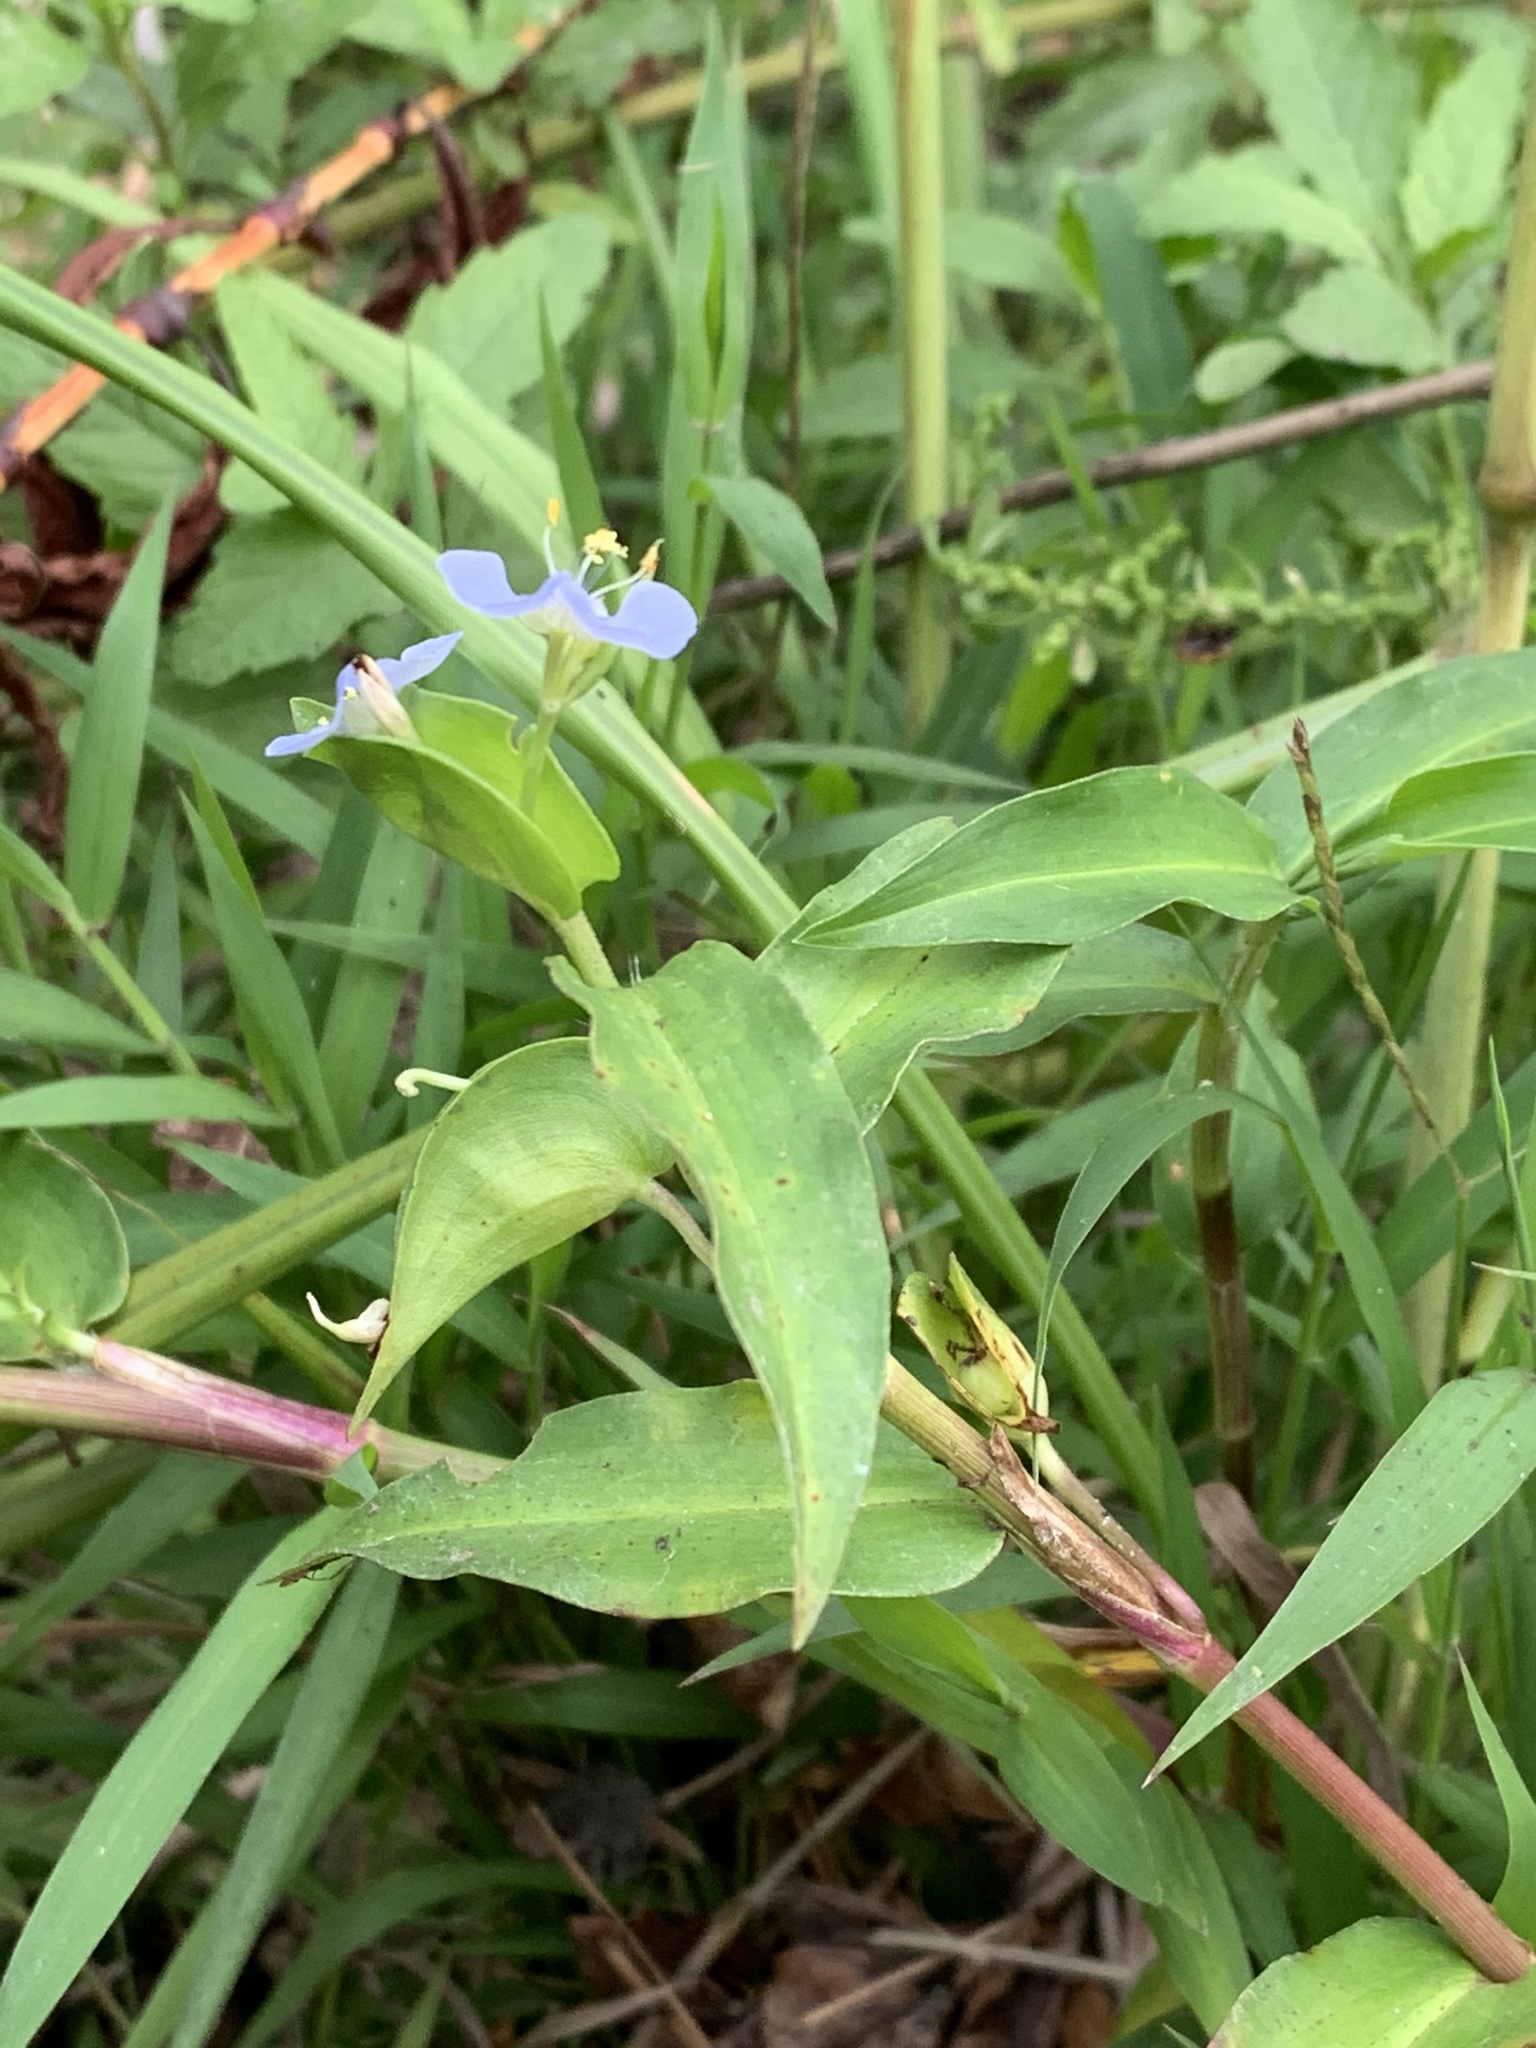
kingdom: Plantae
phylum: Tracheophyta
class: Liliopsida
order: Commelinales
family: Commelinaceae
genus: Commelina
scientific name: Commelina diffusa
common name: Climbing dayflower
